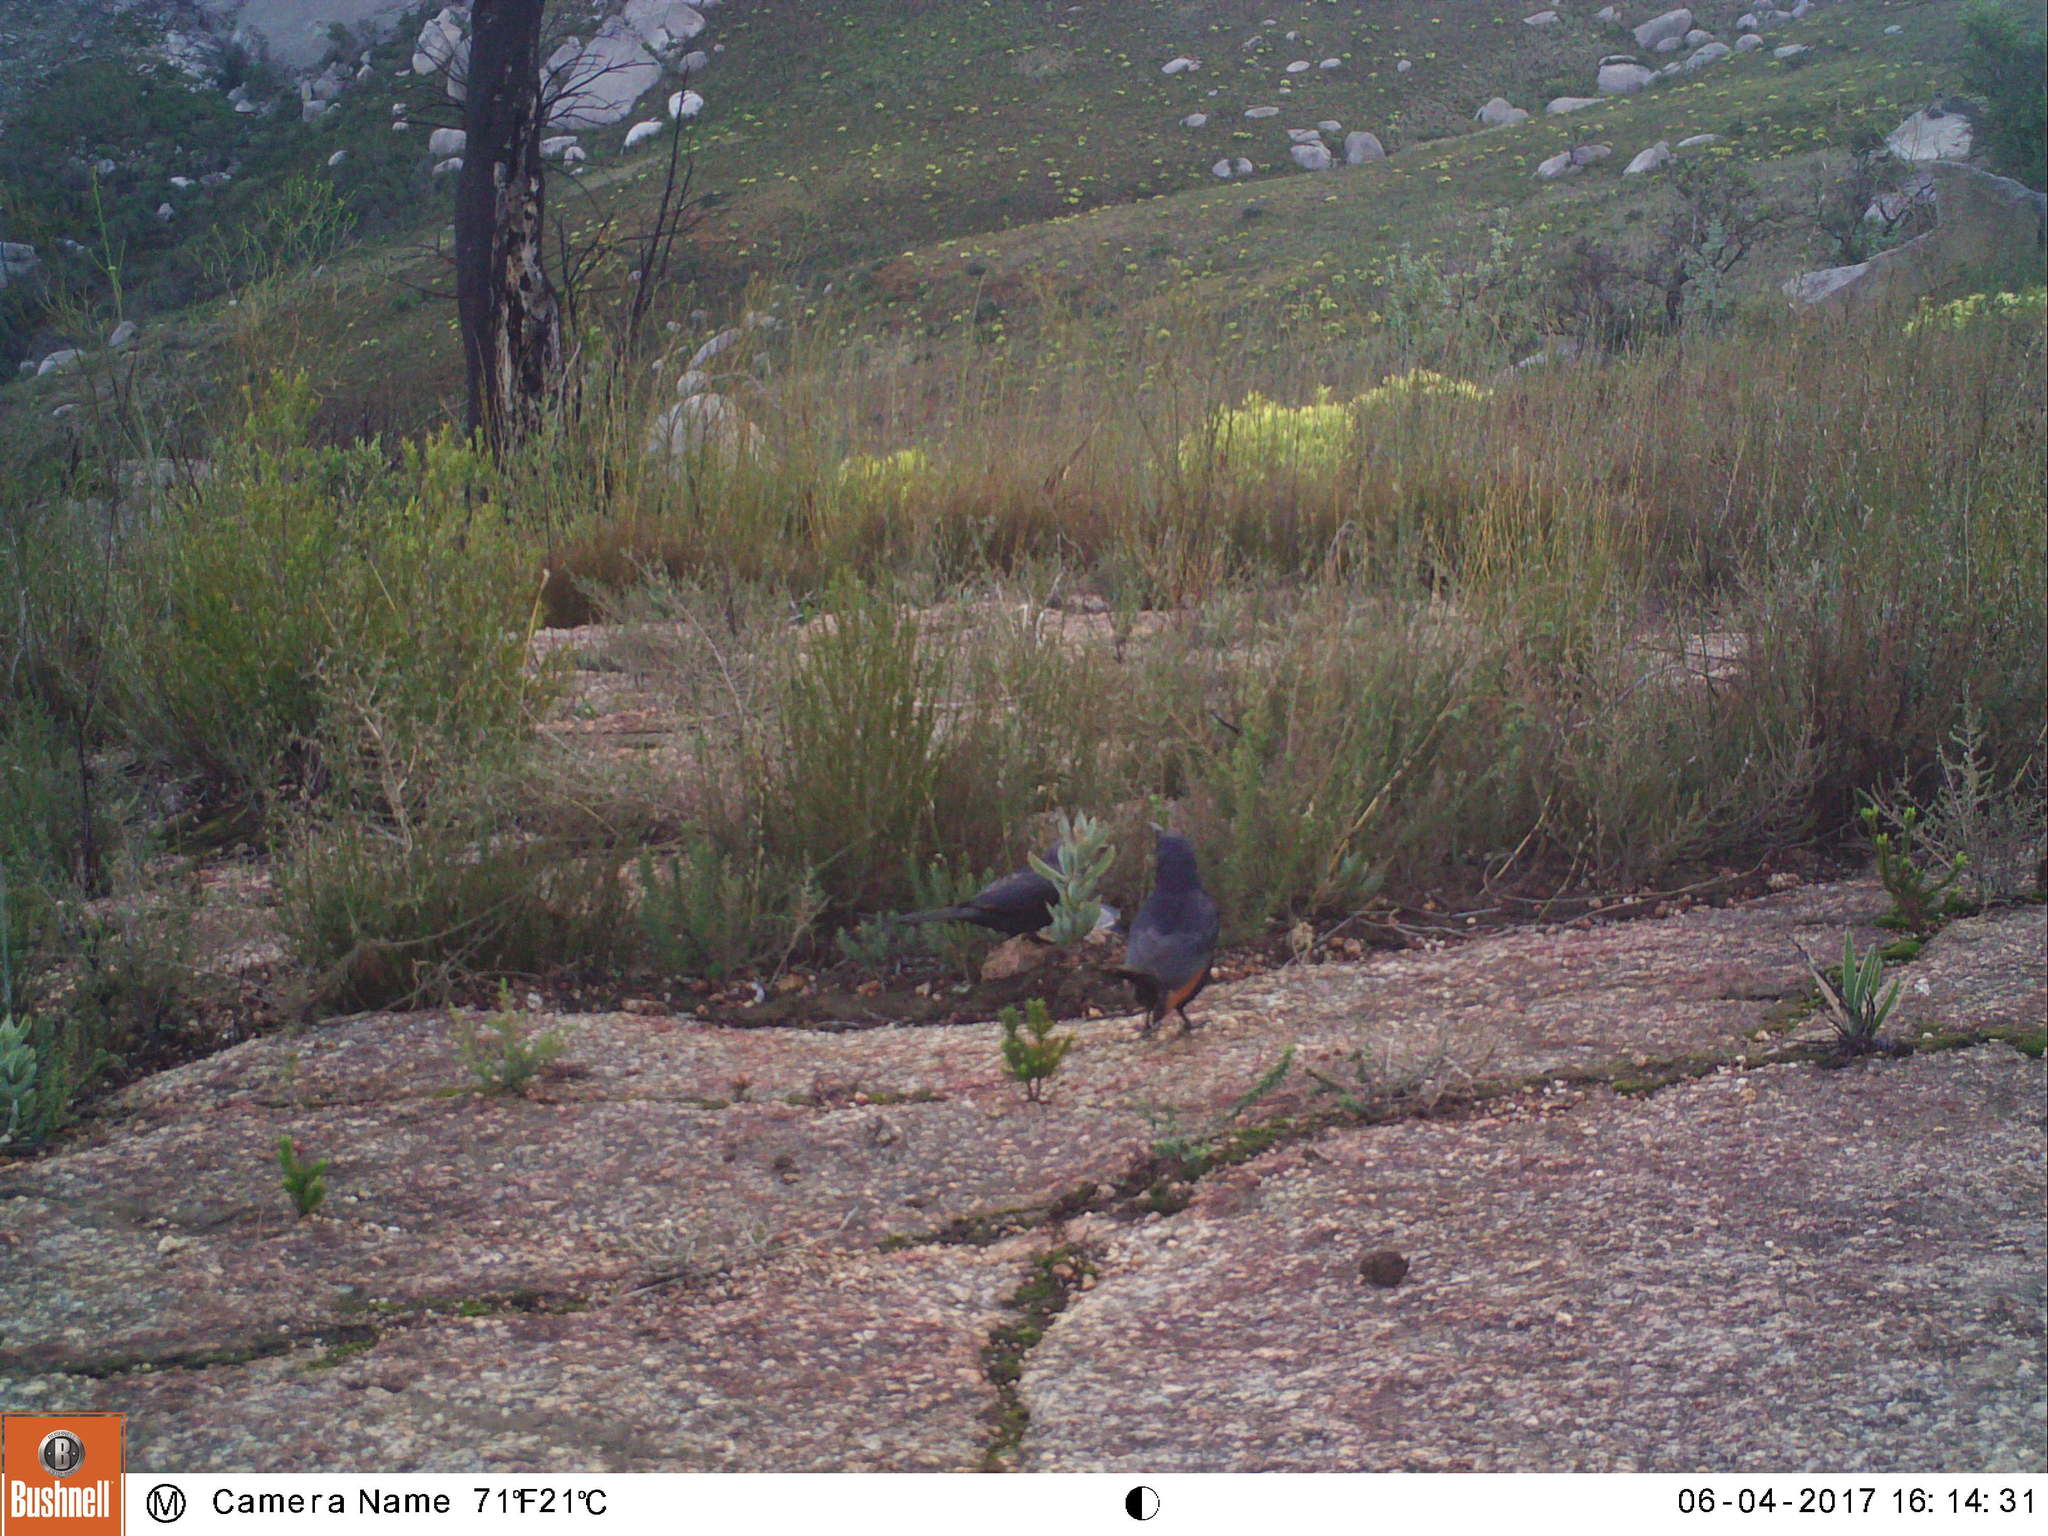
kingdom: Animalia
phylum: Chordata
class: Aves
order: Passeriformes
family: Sturnidae
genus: Onychognathus
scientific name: Onychognathus morio
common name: Red-winged starling
